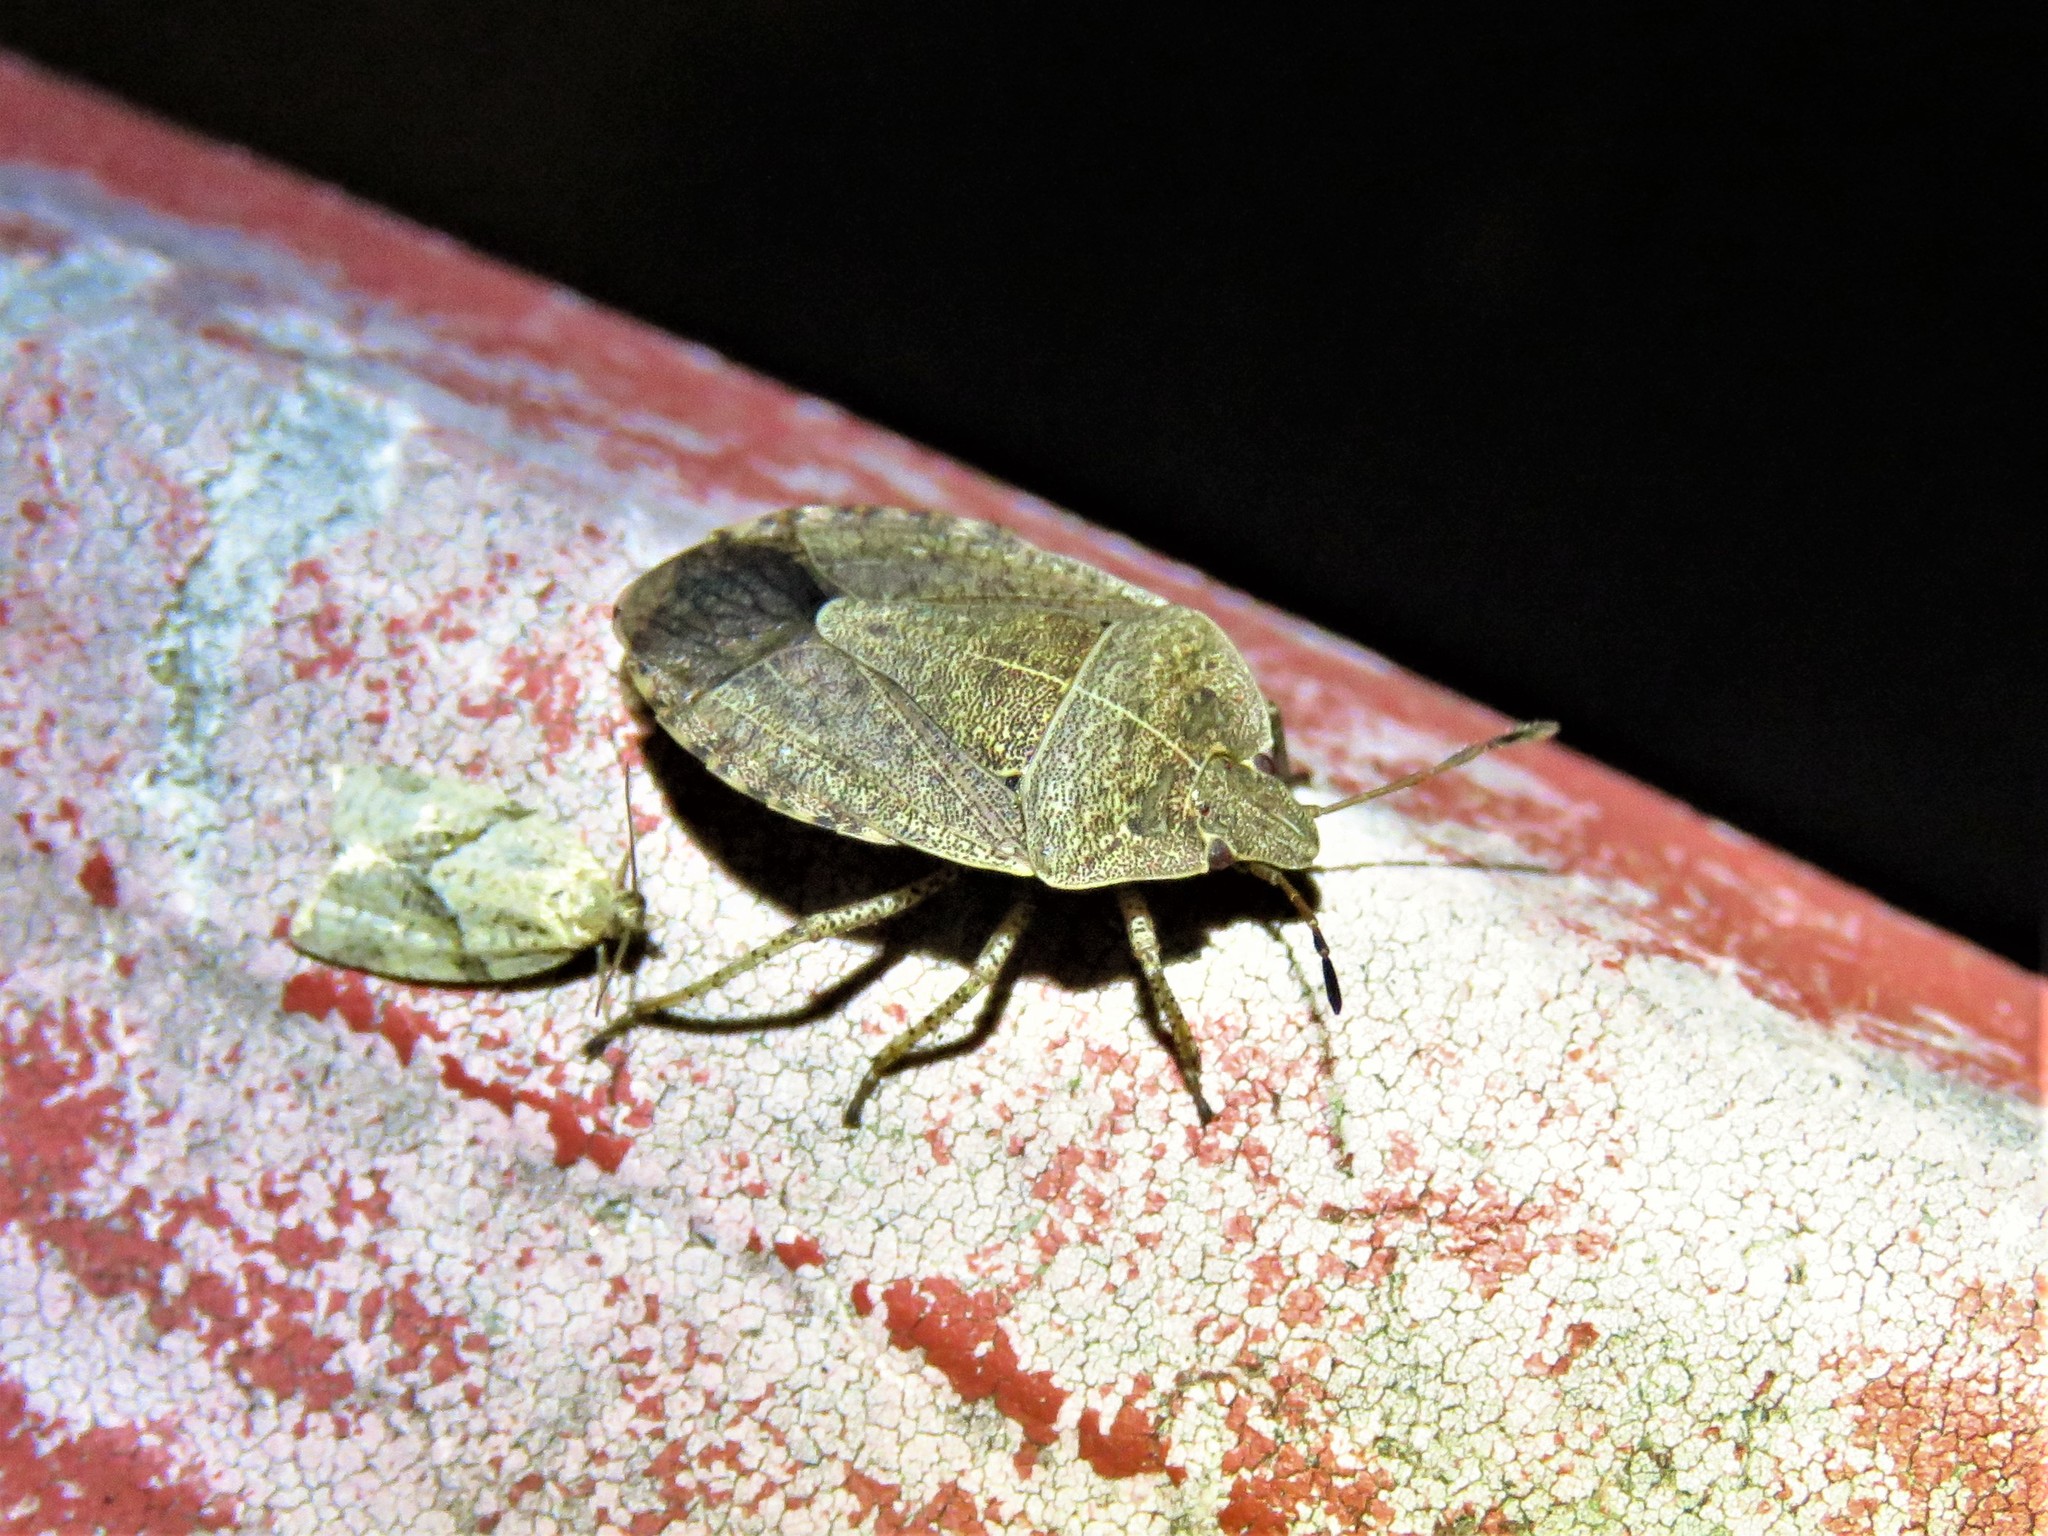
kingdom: Animalia
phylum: Arthropoda
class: Insecta
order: Hemiptera
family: Pentatomidae
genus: Menecles
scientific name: Menecles insertus
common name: Elf shoe stink bug
